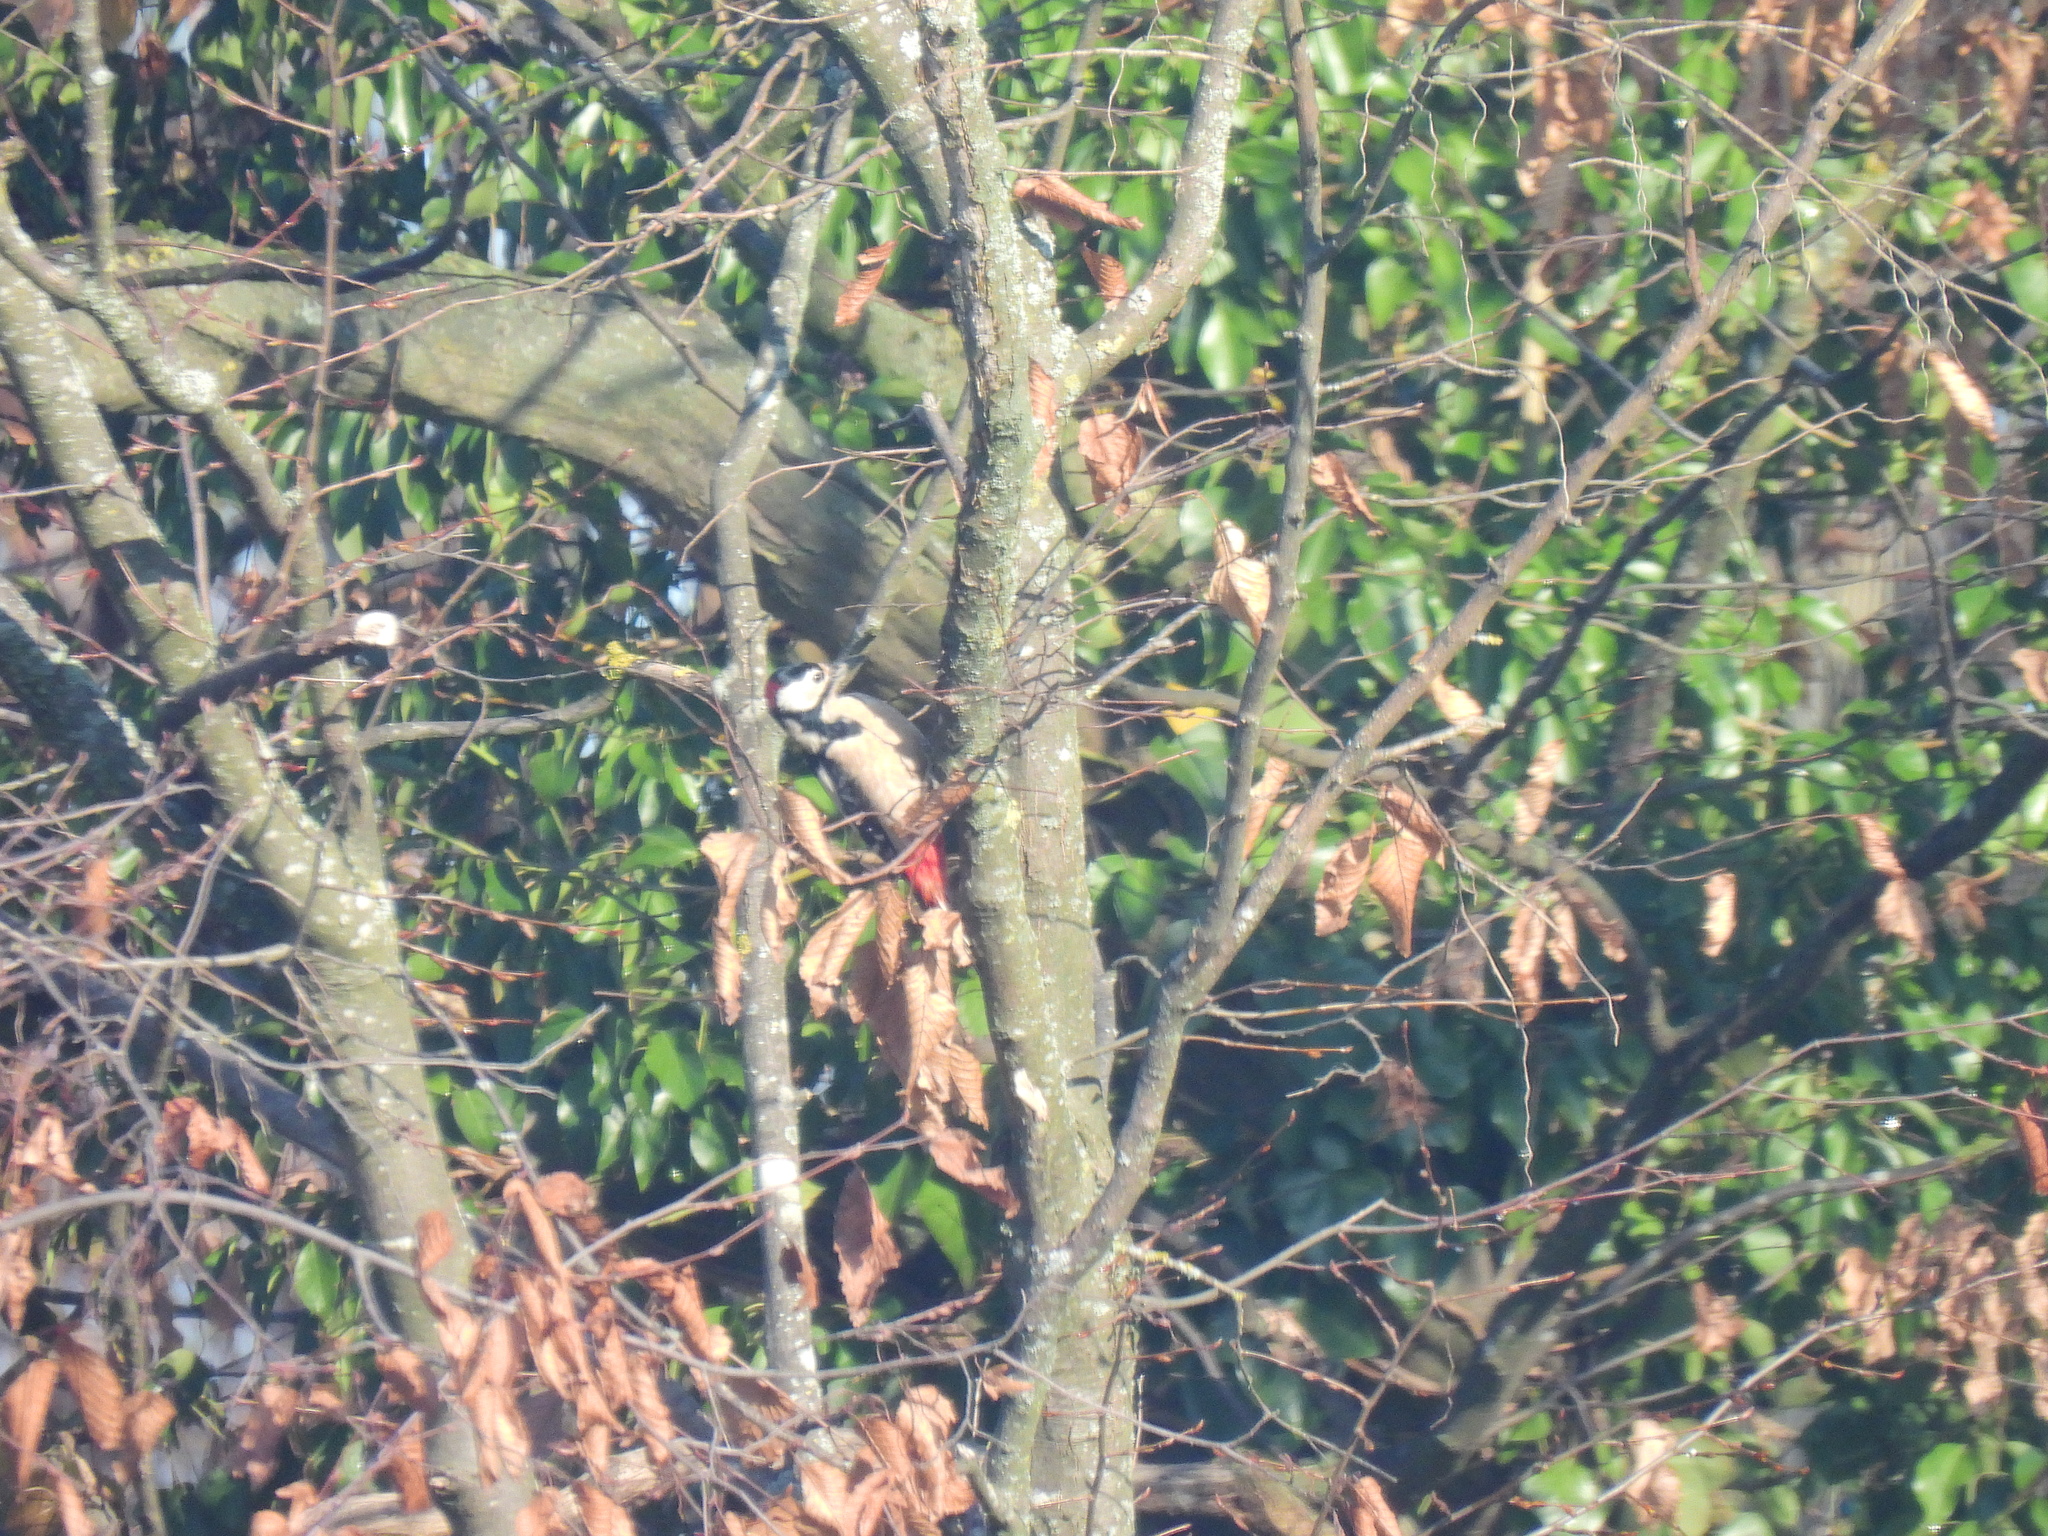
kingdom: Animalia
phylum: Chordata
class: Aves
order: Piciformes
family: Picidae
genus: Dendrocopos
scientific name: Dendrocopos major
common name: Great spotted woodpecker
